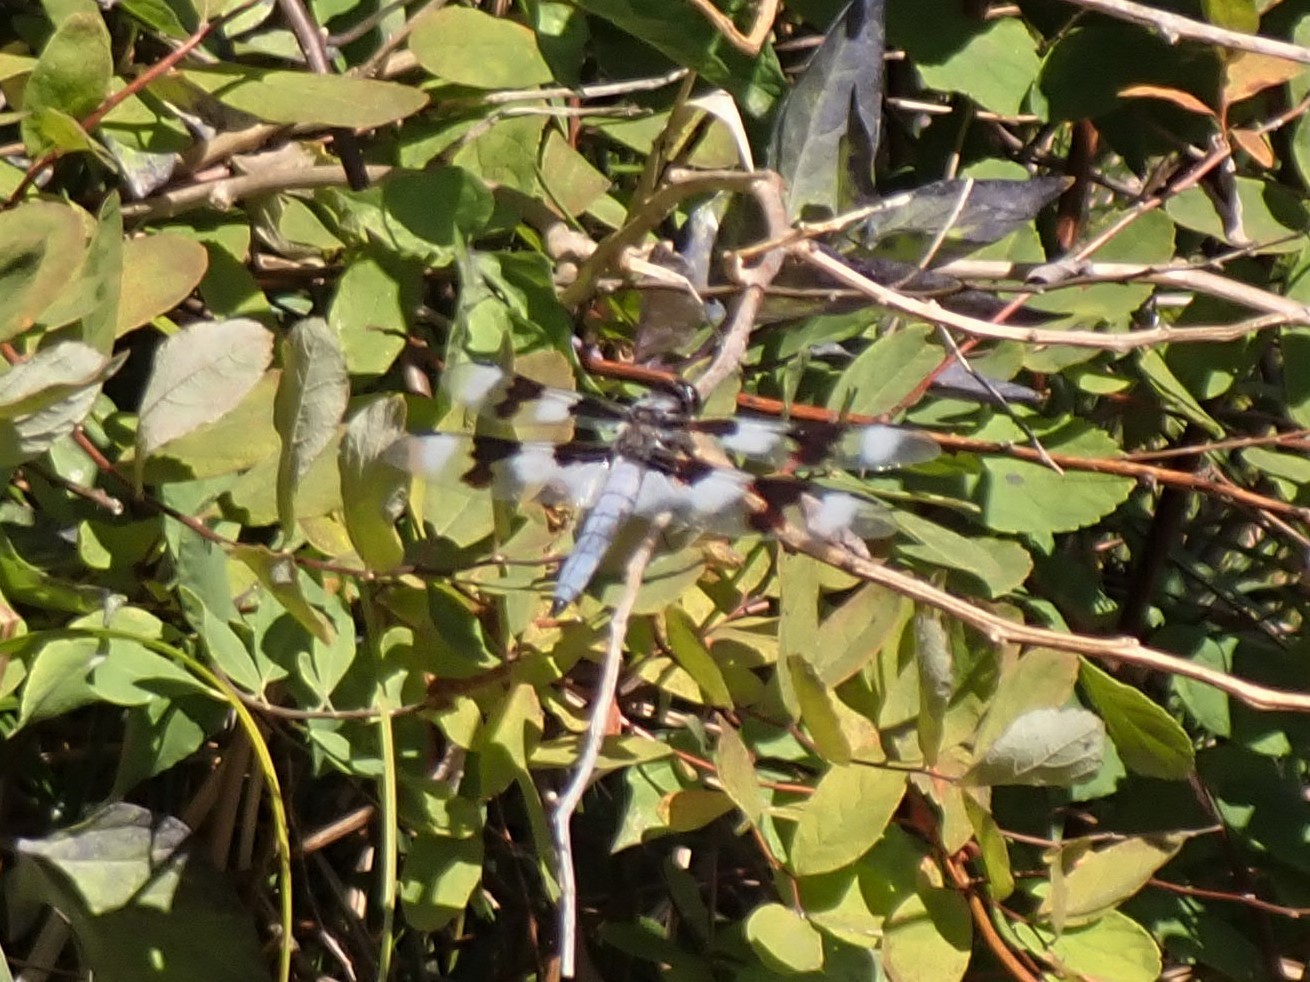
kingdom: Animalia
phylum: Arthropoda
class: Insecta
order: Odonata
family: Libellulidae
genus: Libellula
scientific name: Libellula forensis
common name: Eight-spotted skimmer
